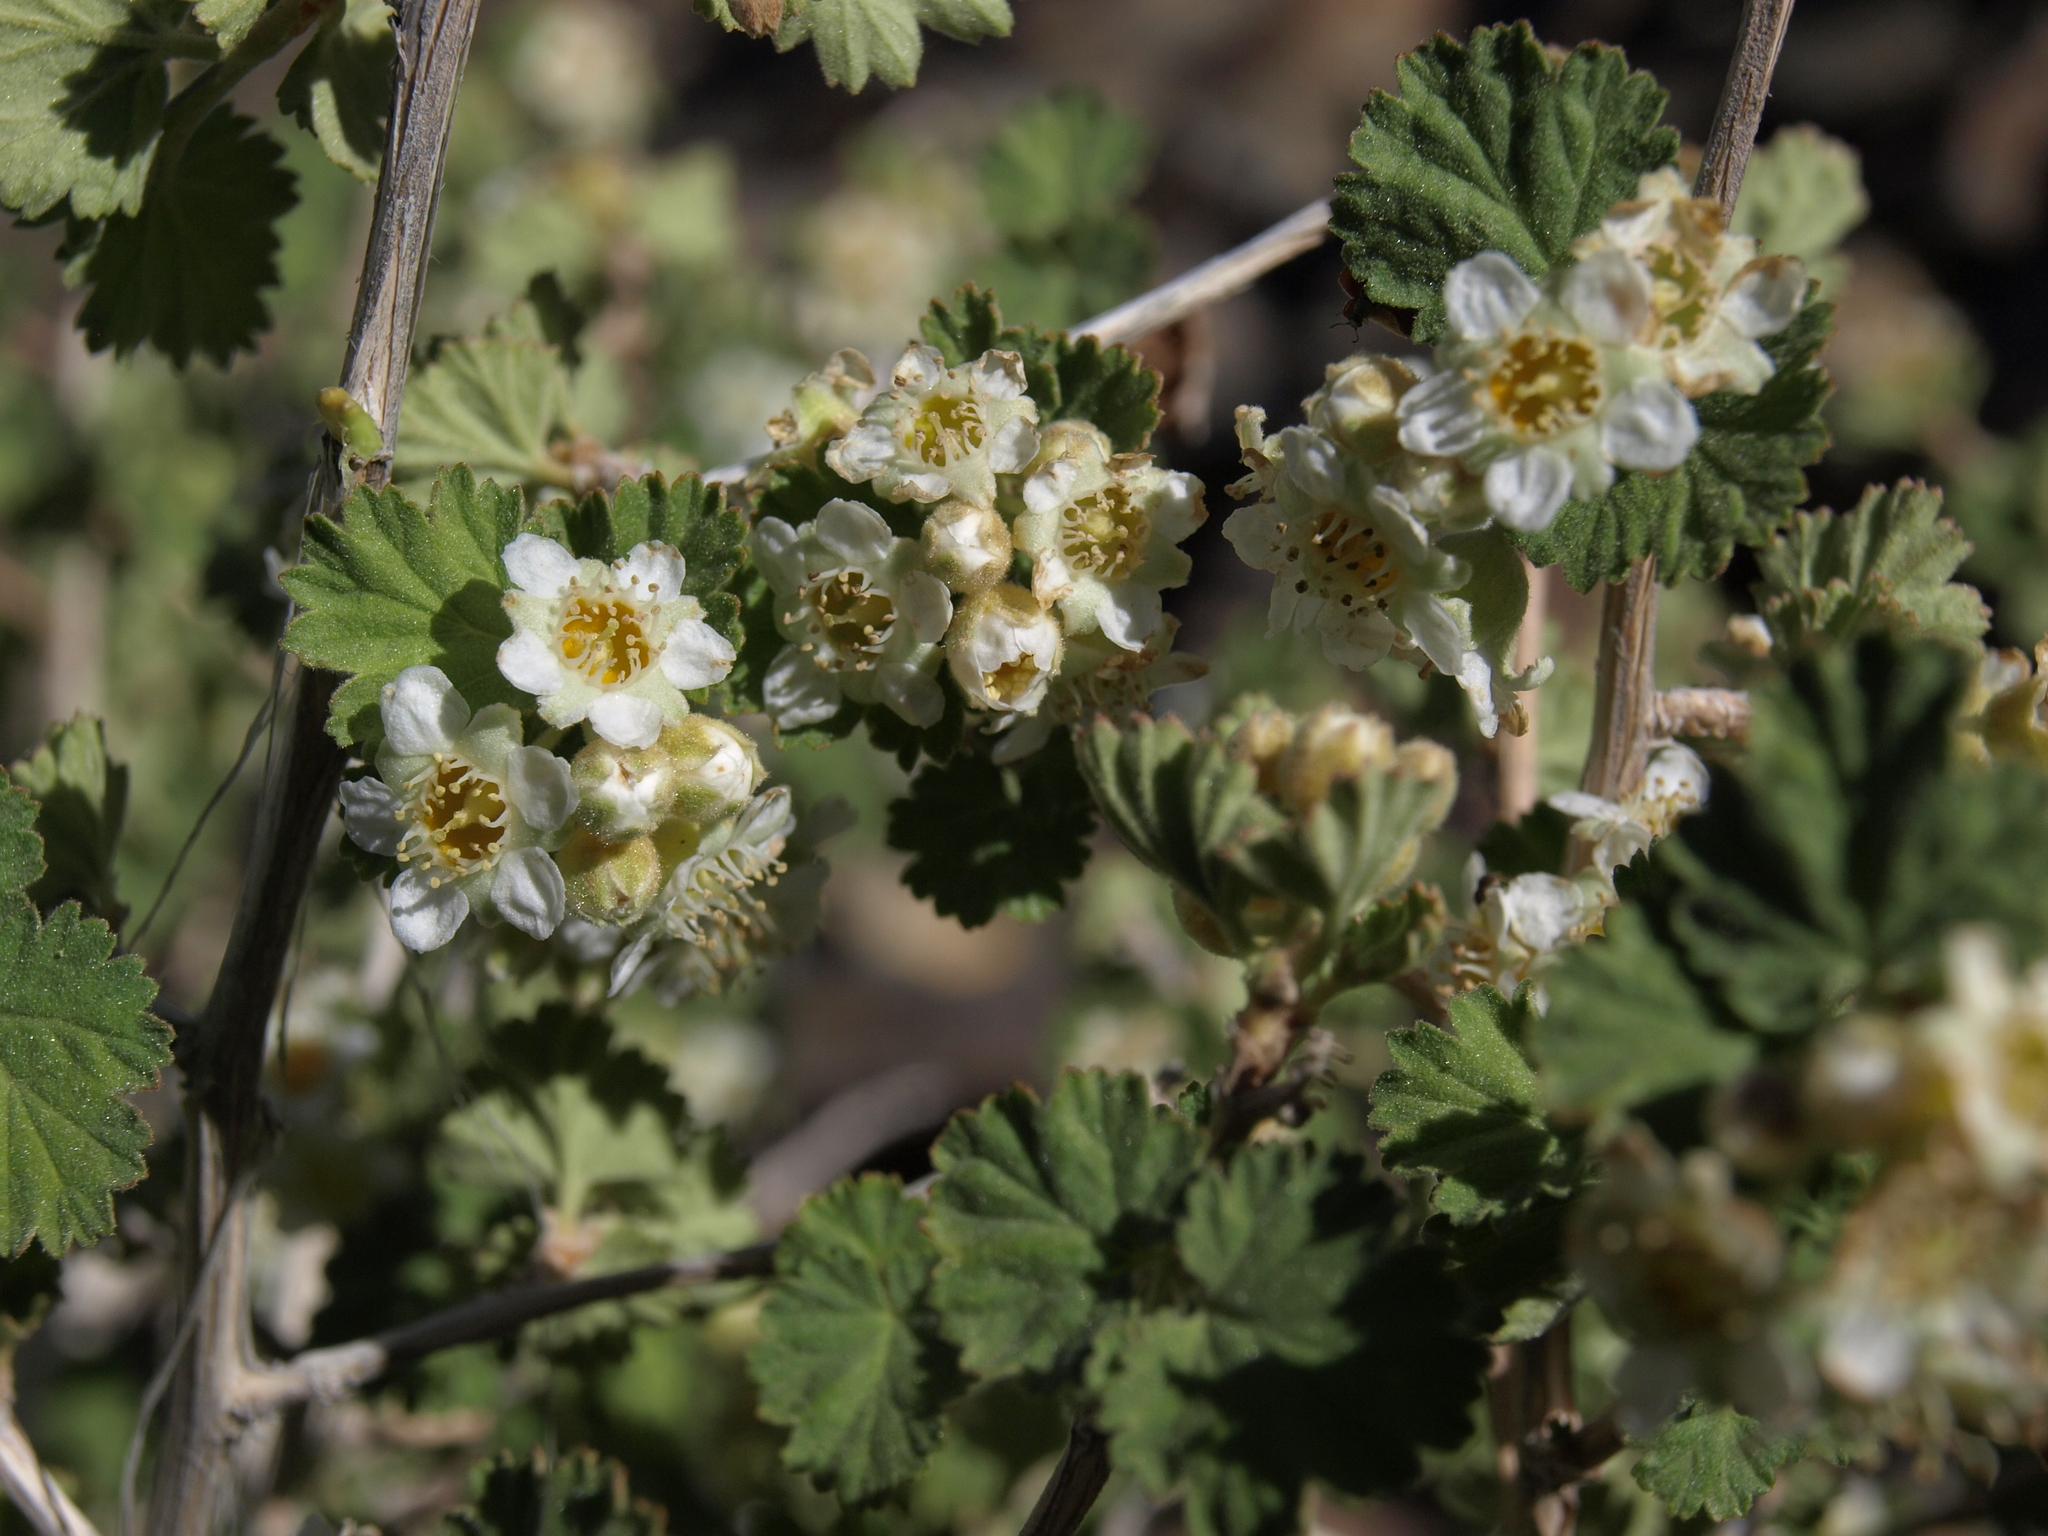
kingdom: Plantae
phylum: Tracheophyta
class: Magnoliopsida
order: Rosales
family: Rosaceae
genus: Physocarpus
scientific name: Physocarpus alternans
